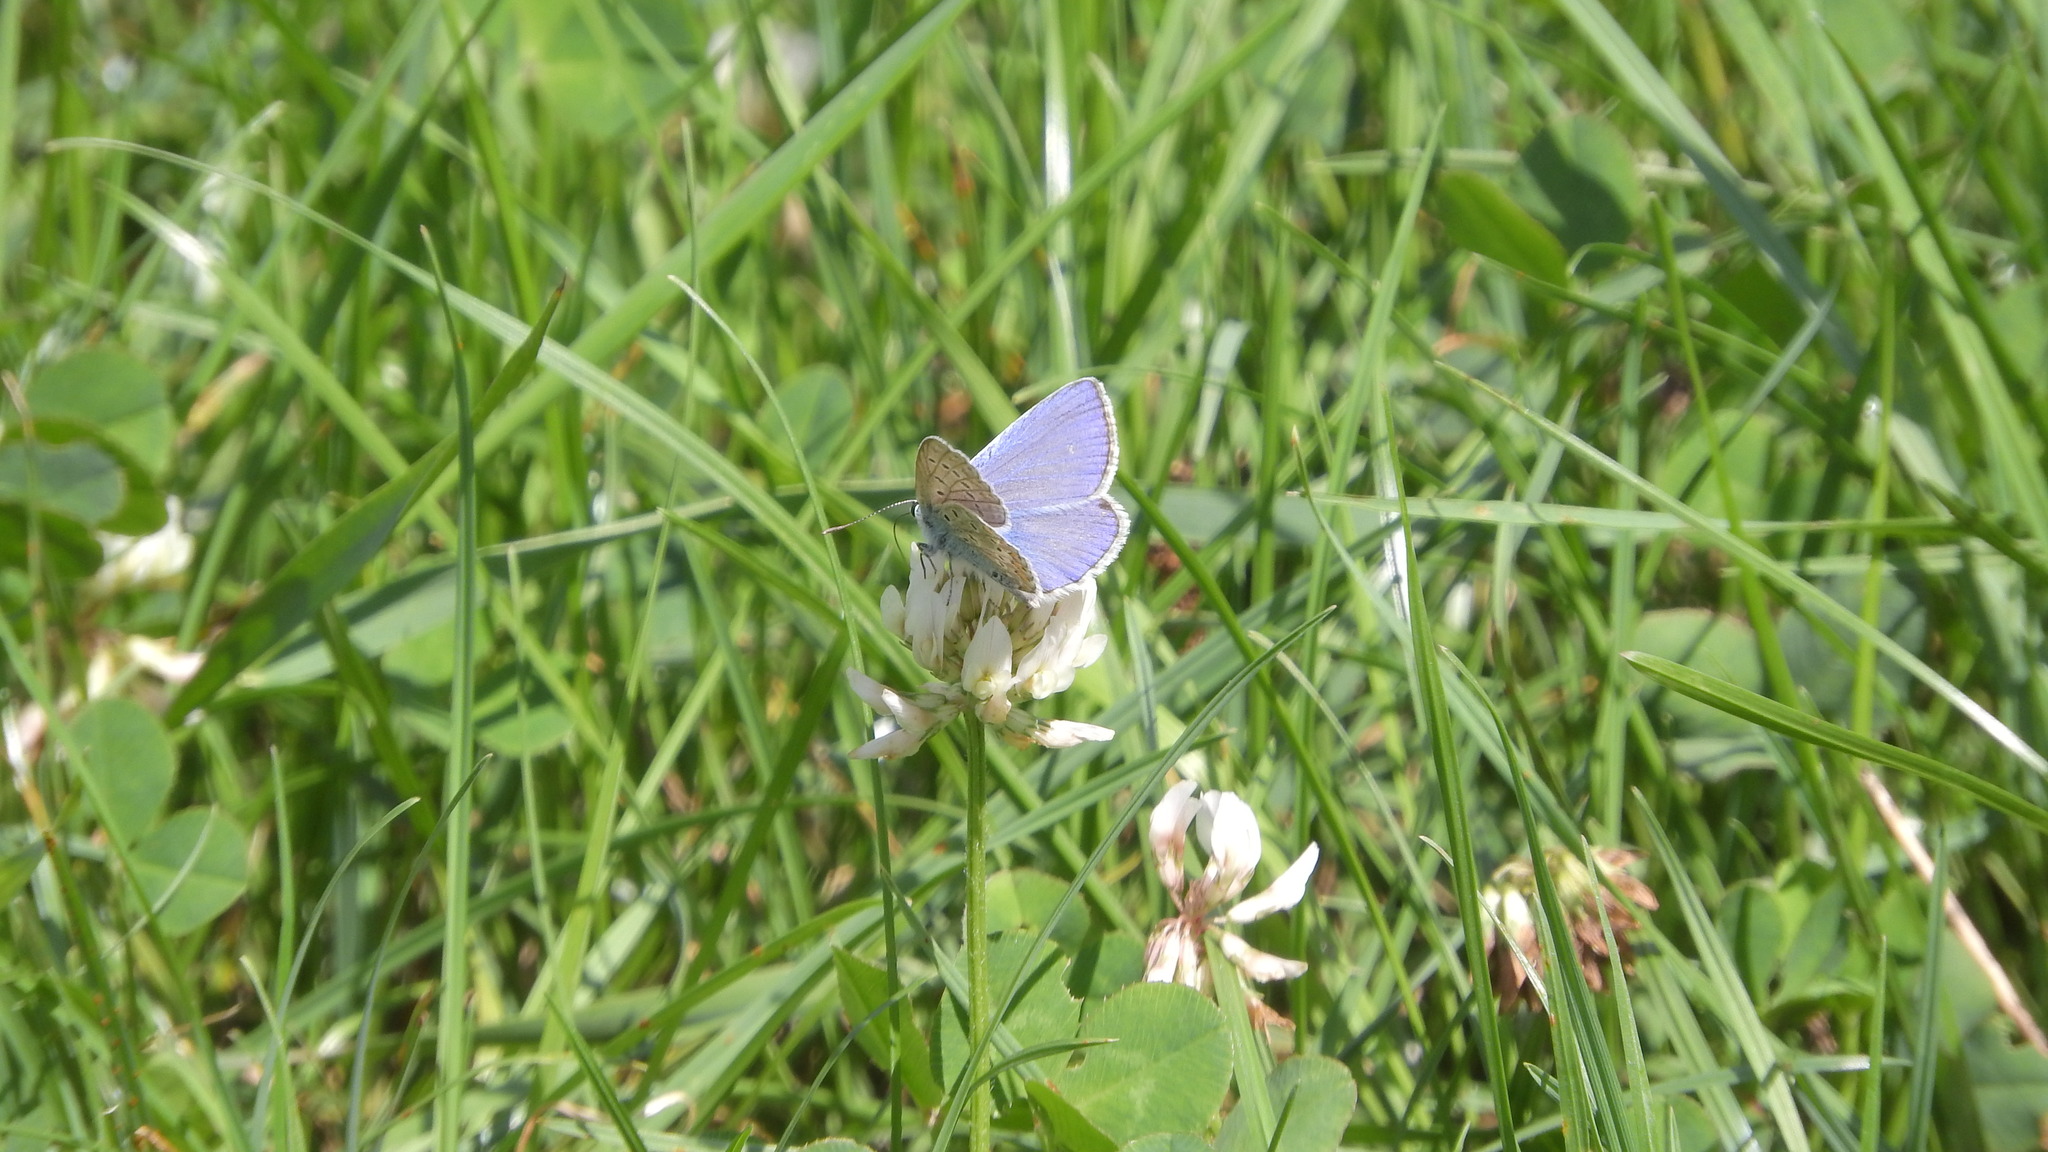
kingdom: Animalia
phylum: Arthropoda
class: Insecta
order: Lepidoptera
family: Lycaenidae
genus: Polyommatus
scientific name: Polyommatus icarus
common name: Common blue
